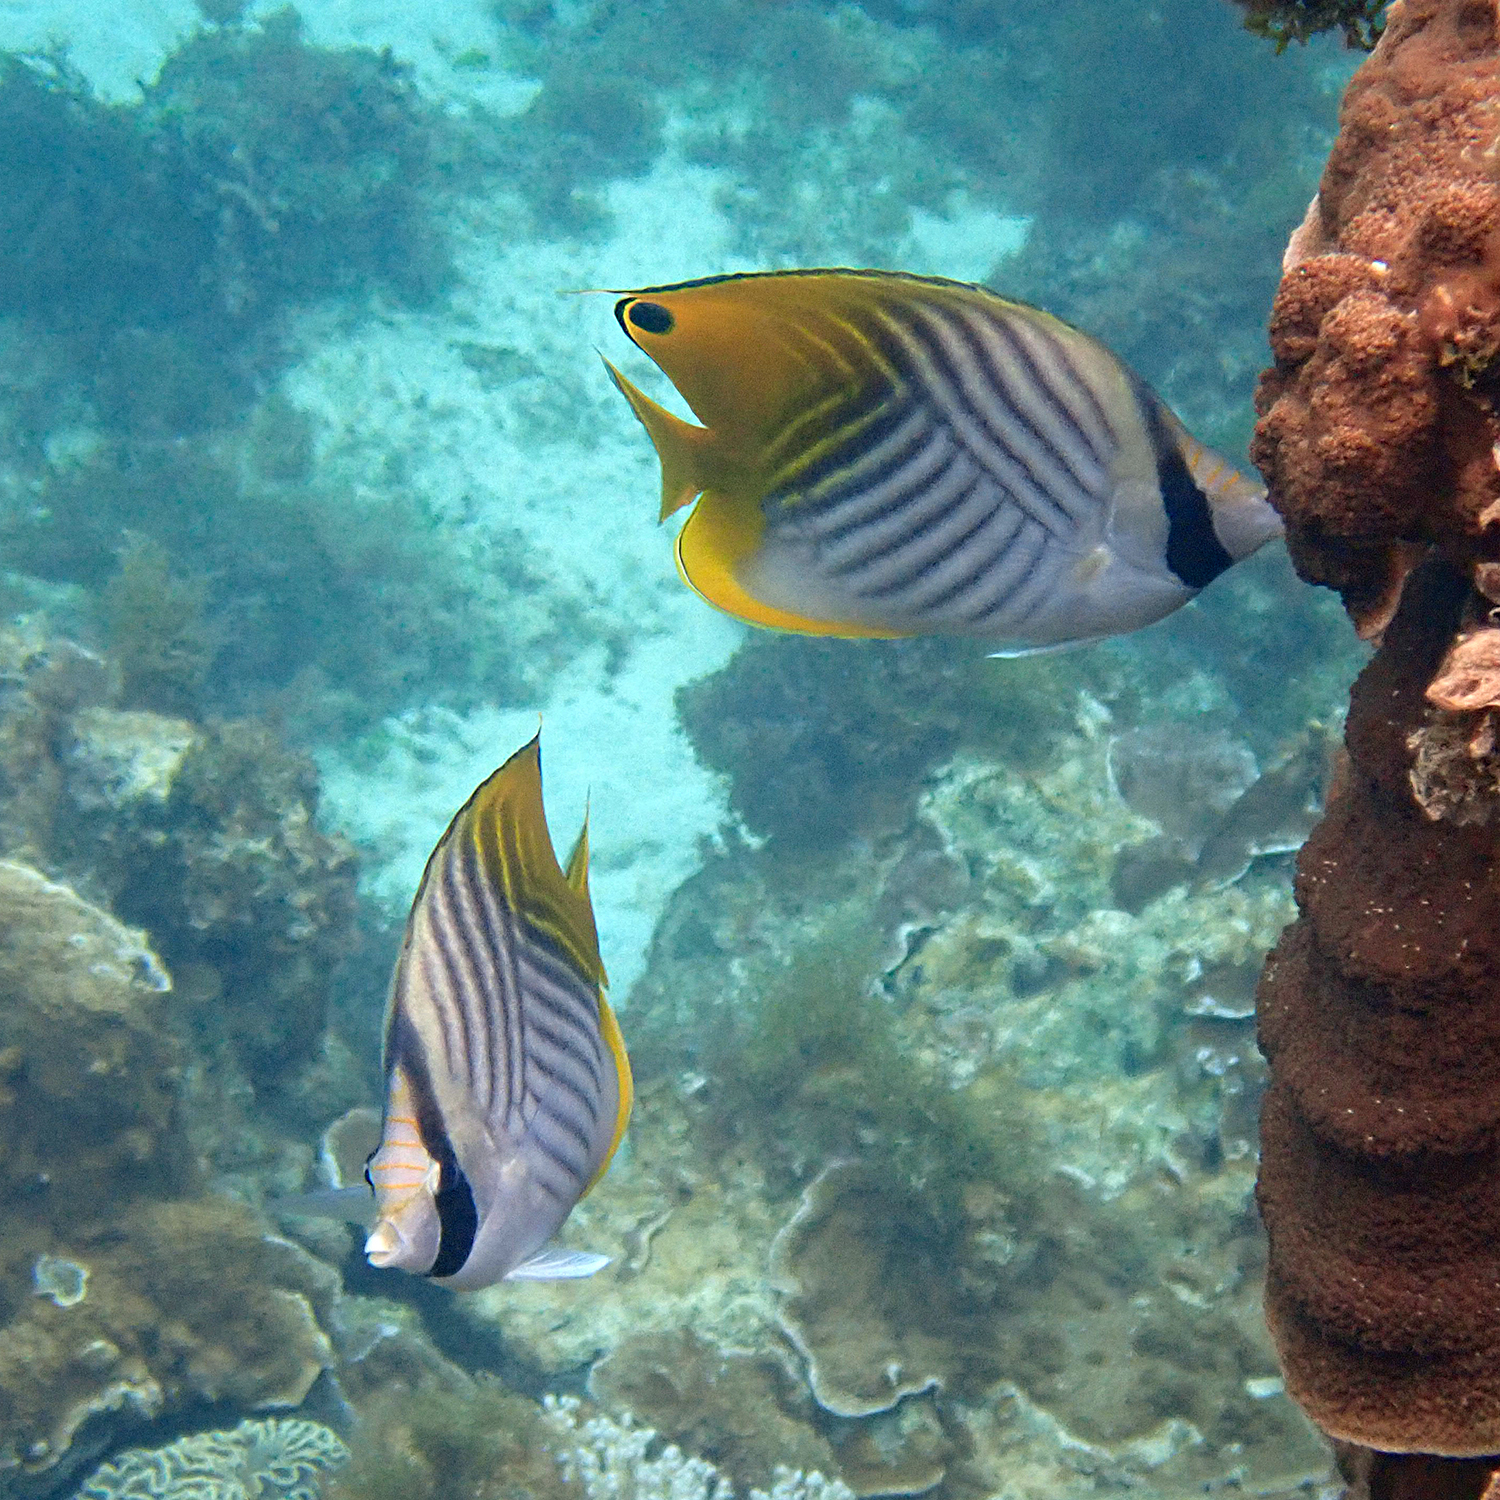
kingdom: Animalia
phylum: Chordata
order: Perciformes
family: Chaetodontidae
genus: Chaetodon
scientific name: Chaetodon auriga
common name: Threadfin butterflyfish
